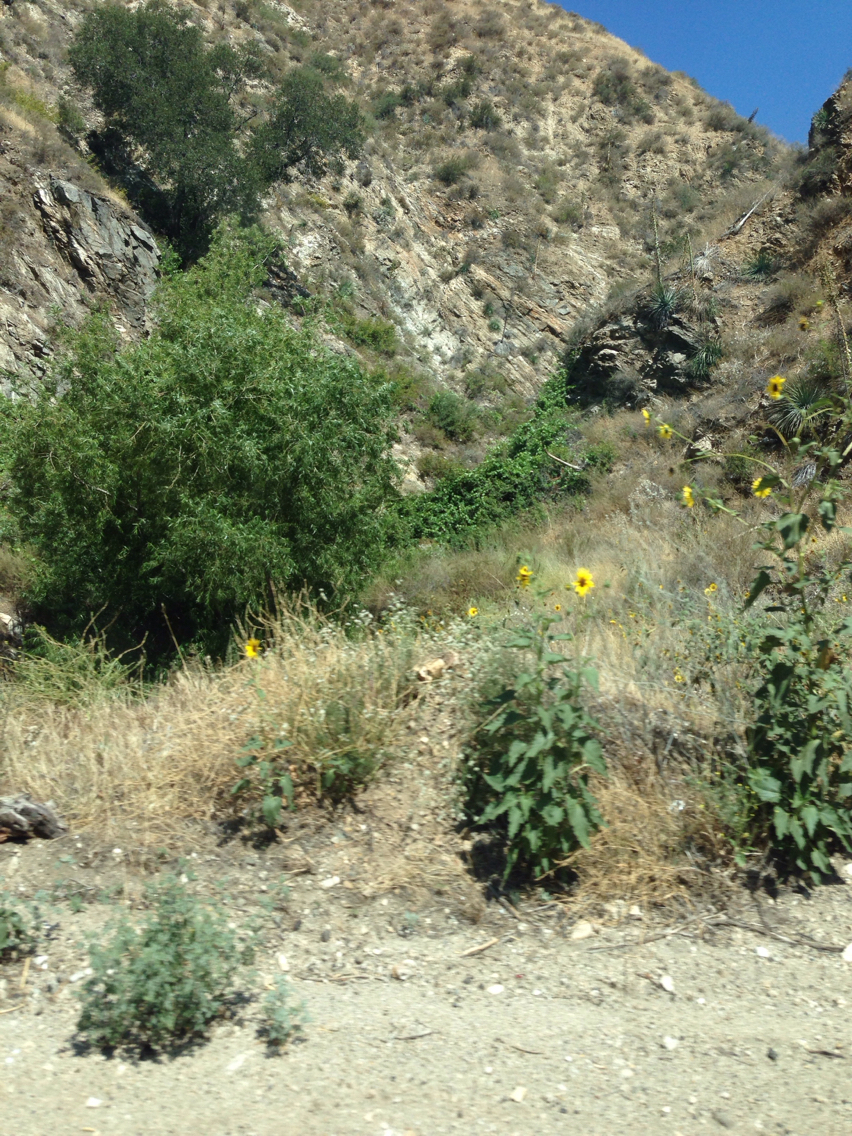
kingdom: Plantae
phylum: Tracheophyta
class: Magnoliopsida
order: Asterales
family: Asteraceae
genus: Helianthus
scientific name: Helianthus annuus
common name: Sunflower
